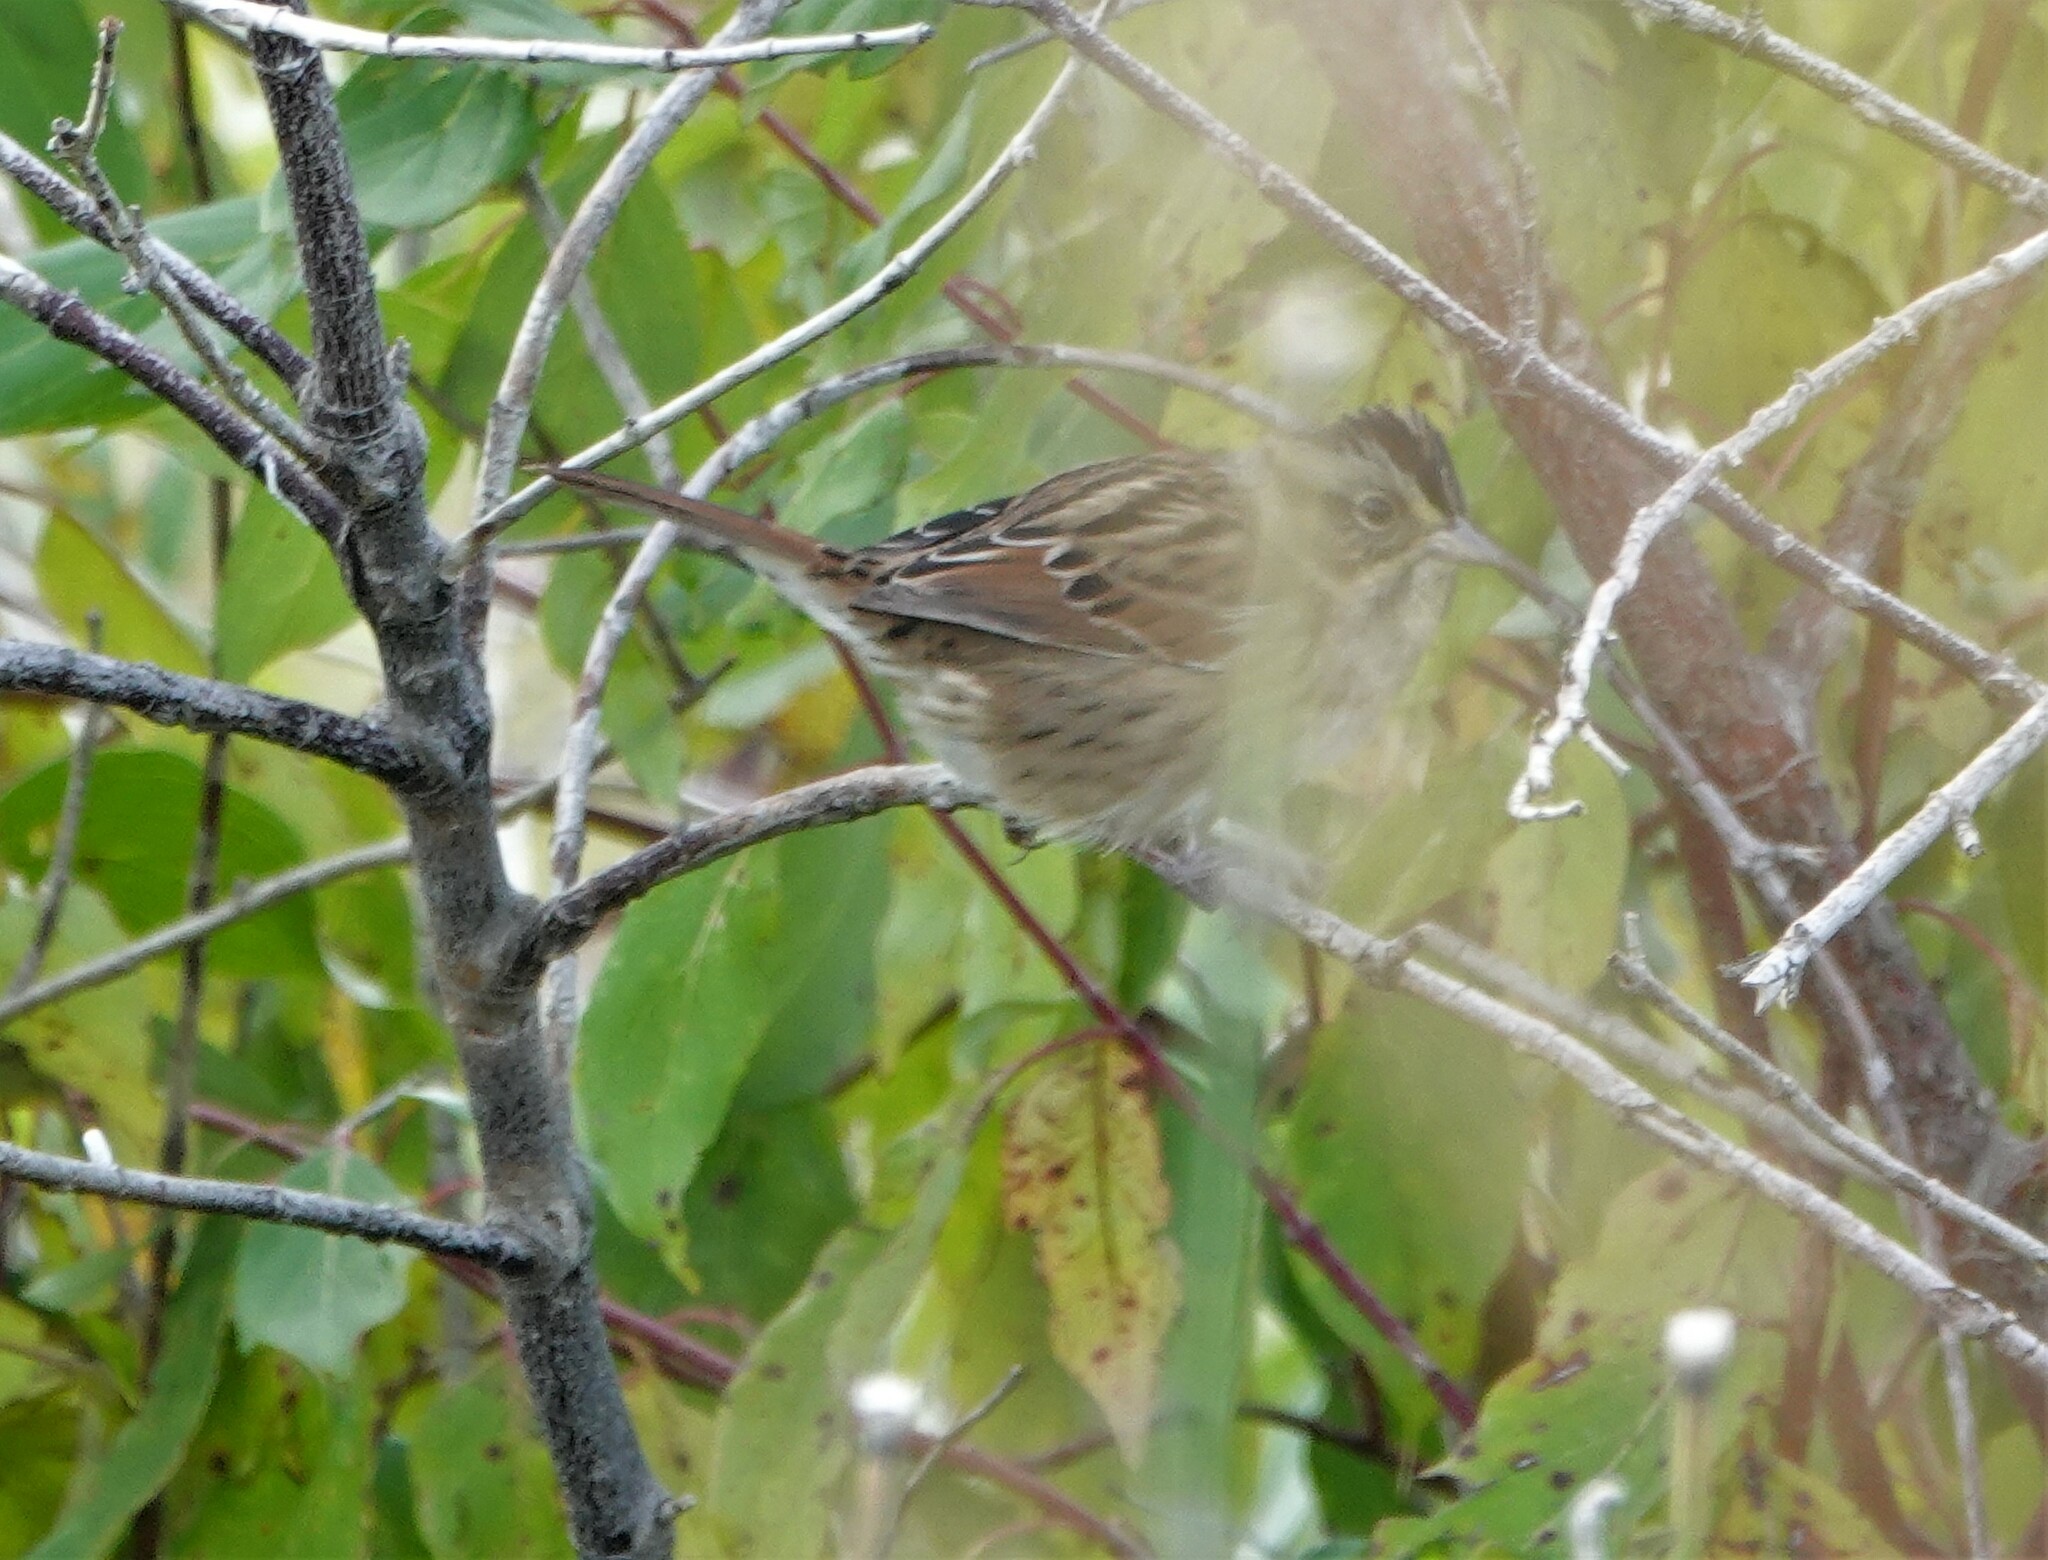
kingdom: Animalia
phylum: Chordata
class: Aves
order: Passeriformes
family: Passerellidae
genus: Melospiza
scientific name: Melospiza georgiana
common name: Swamp sparrow
